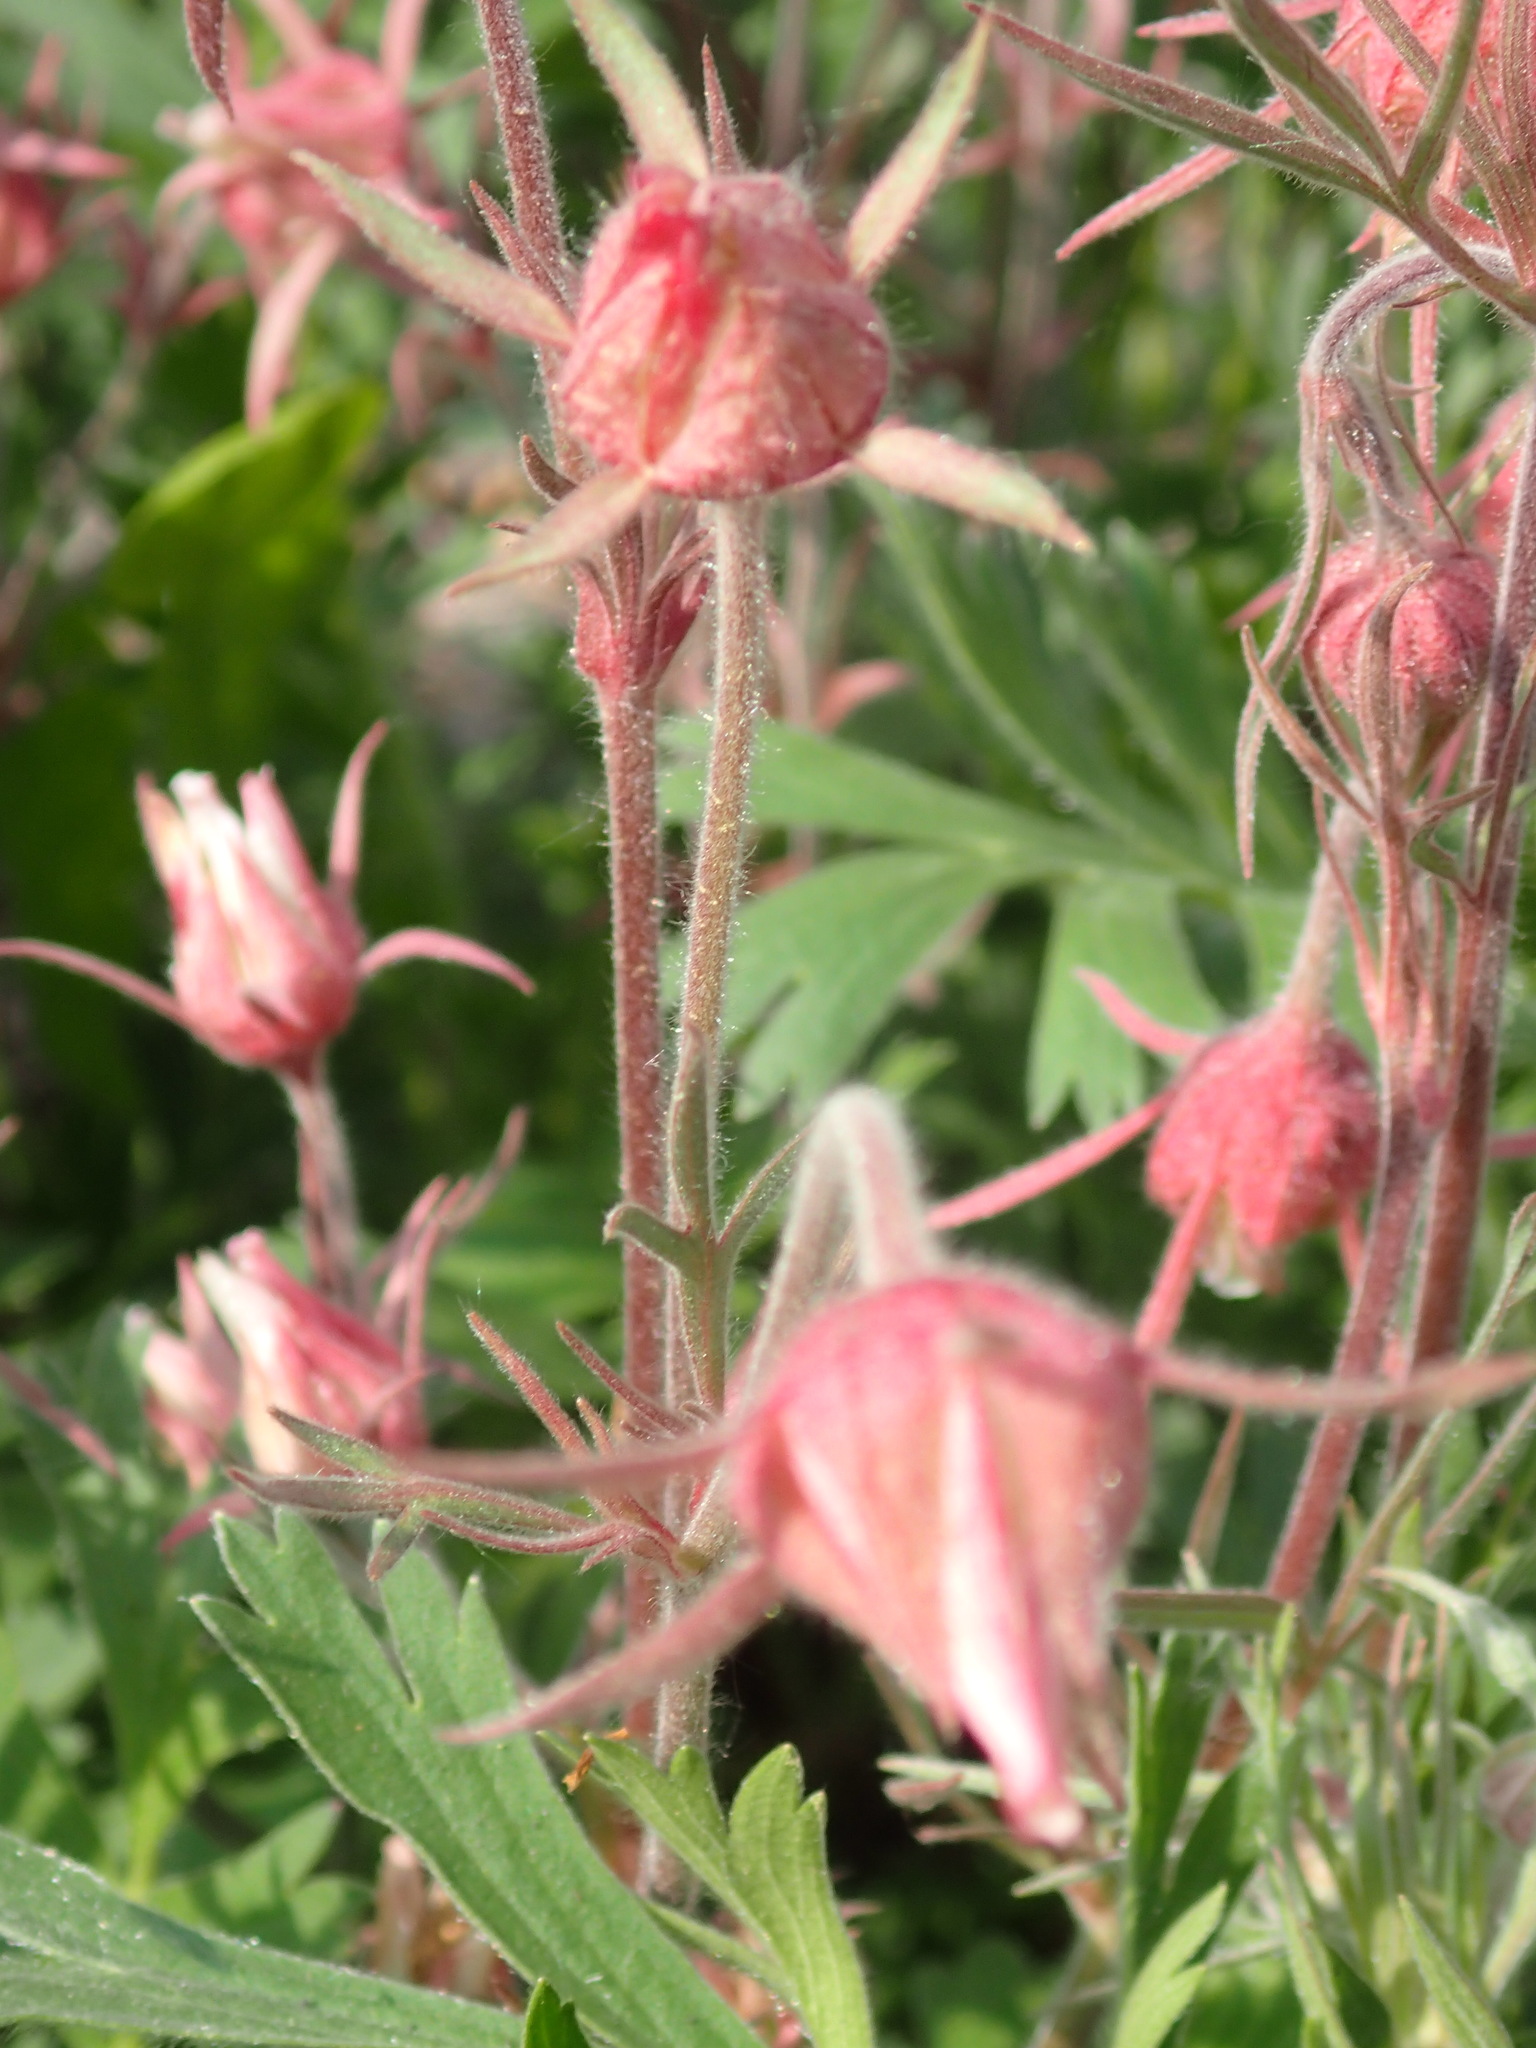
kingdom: Plantae
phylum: Tracheophyta
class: Magnoliopsida
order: Rosales
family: Rosaceae
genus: Geum
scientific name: Geum triflorum
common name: Old man's whiskers
